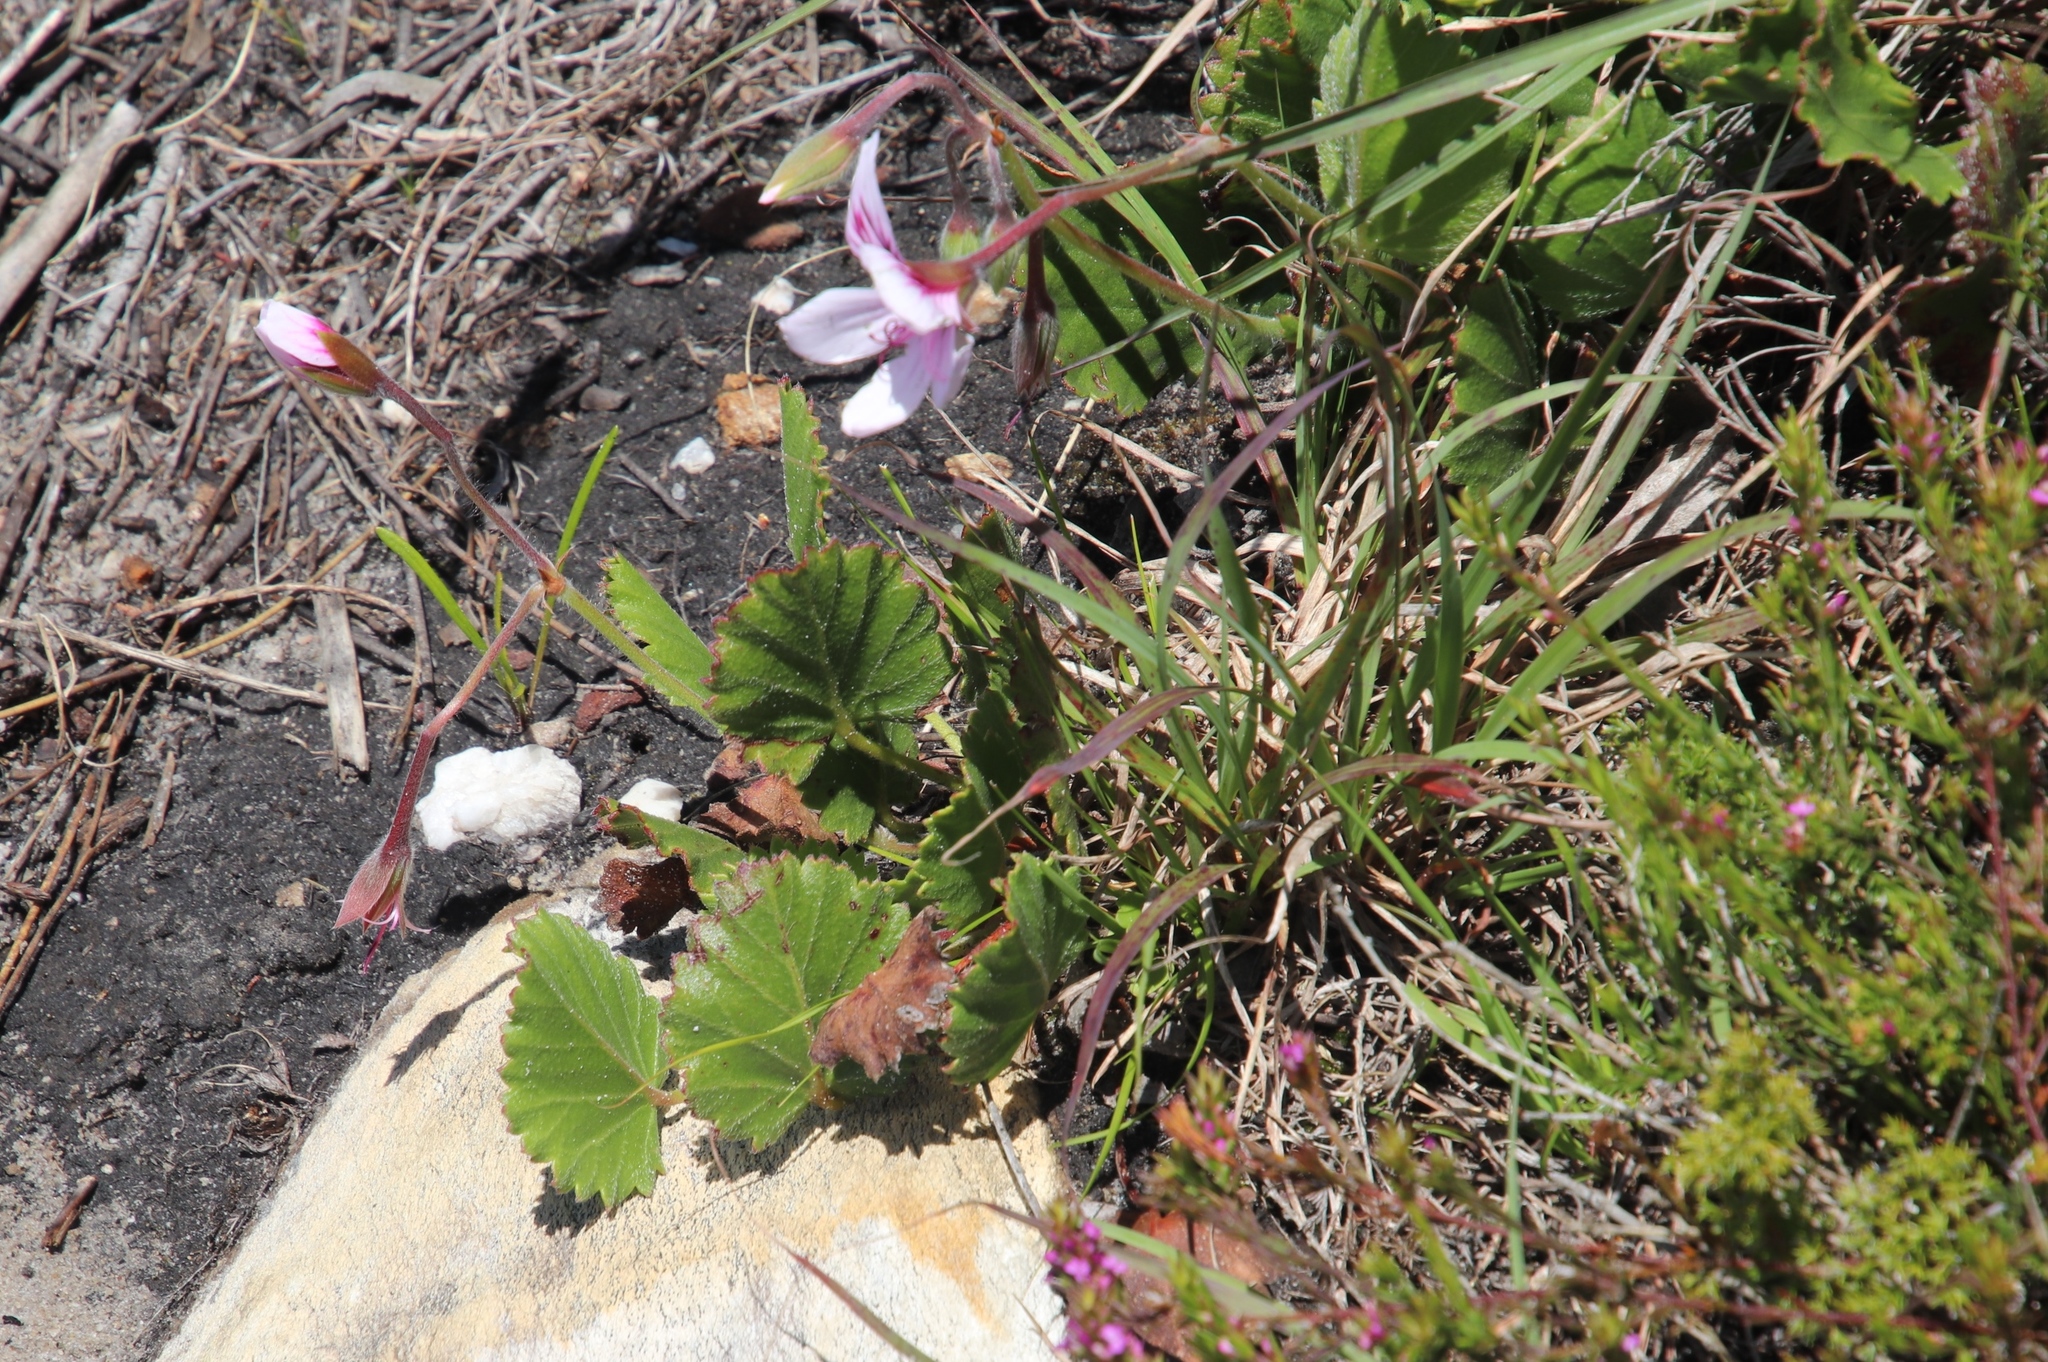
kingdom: Plantae
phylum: Tracheophyta
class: Magnoliopsida
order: Geraniales
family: Geraniaceae
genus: Pelargonium
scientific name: Pelargonium elegans
